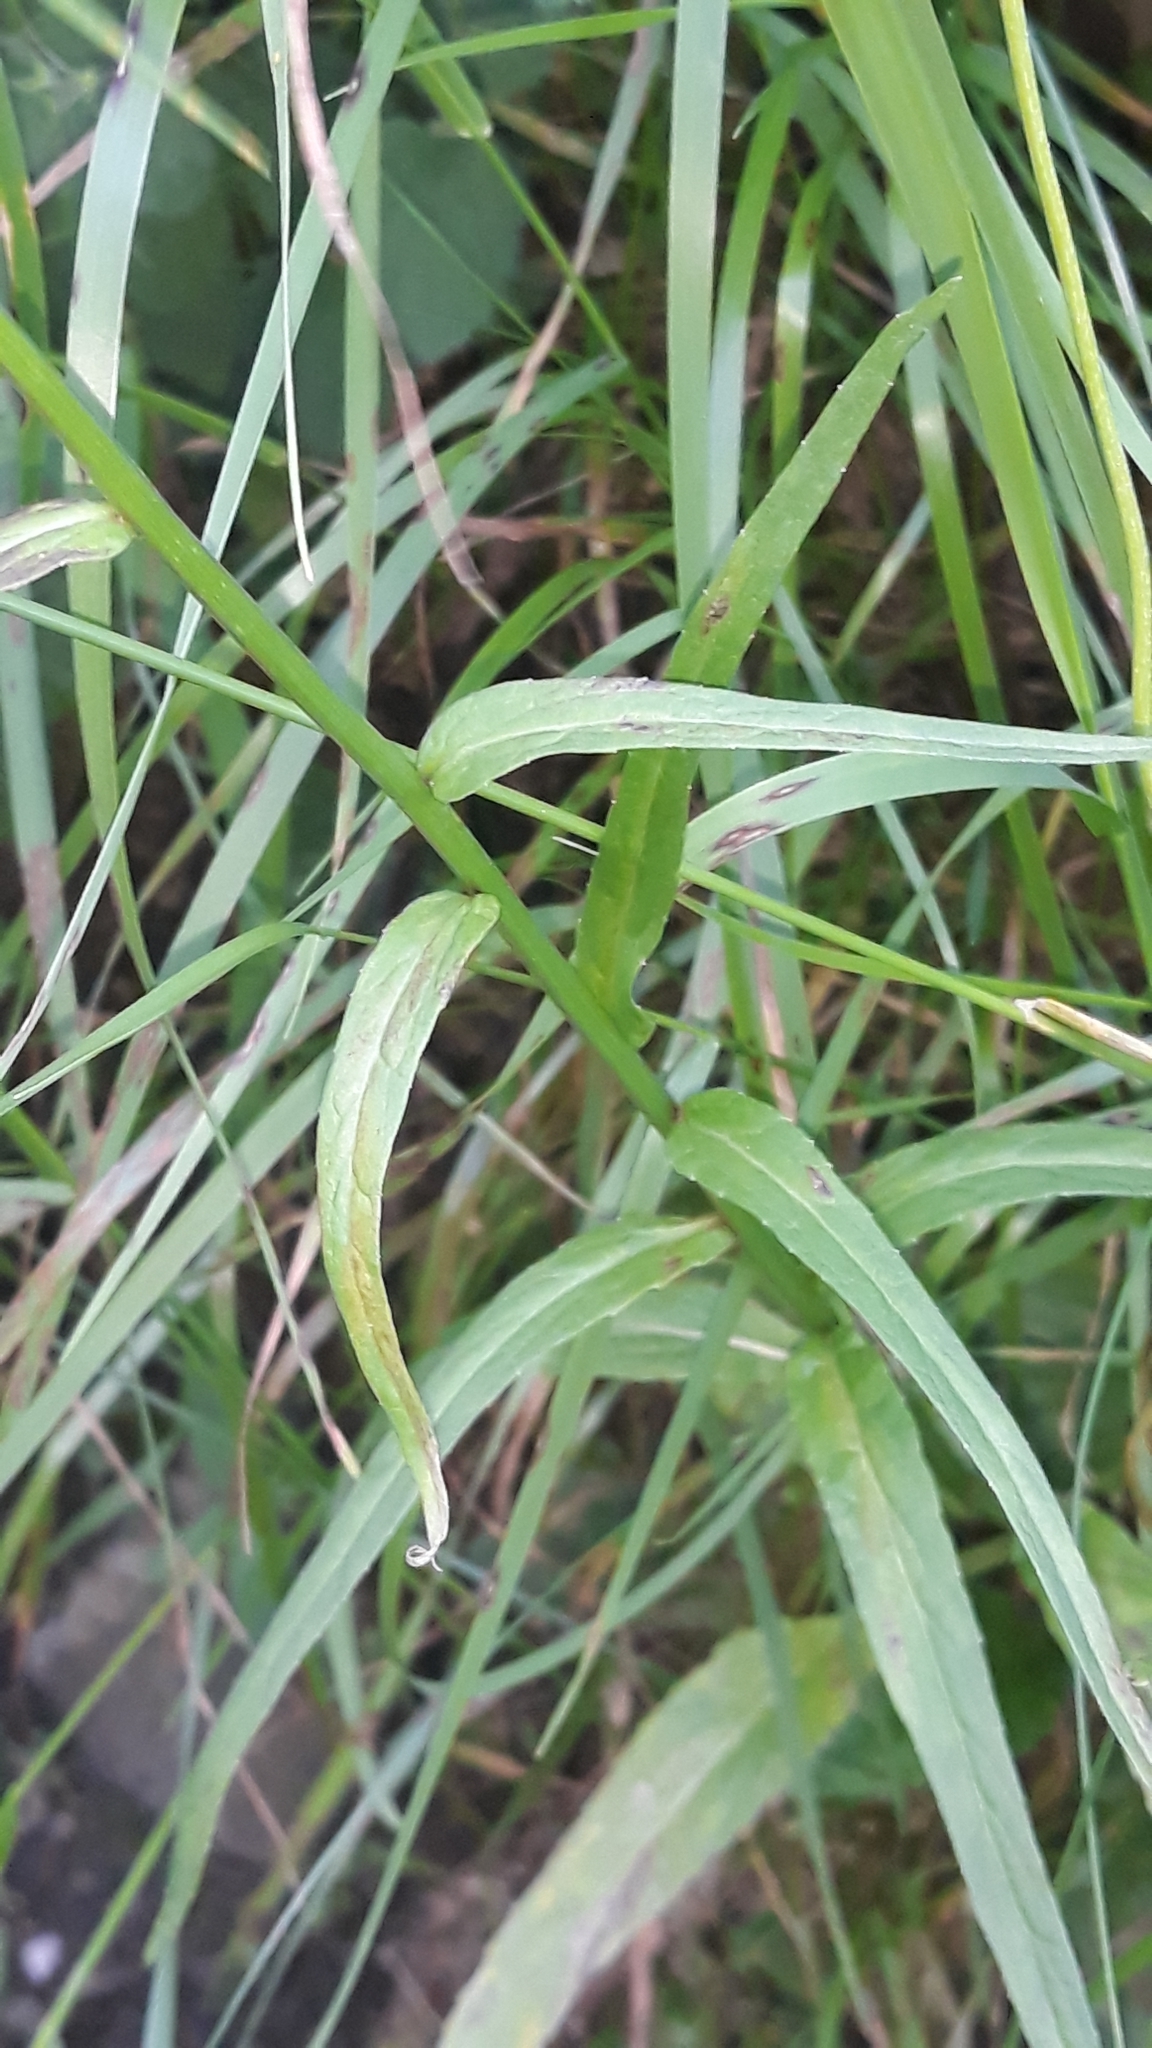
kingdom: Plantae
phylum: Tracheophyta
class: Magnoliopsida
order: Asterales
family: Campanulaceae
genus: Phyteuma
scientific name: Phyteuma persicifolium
